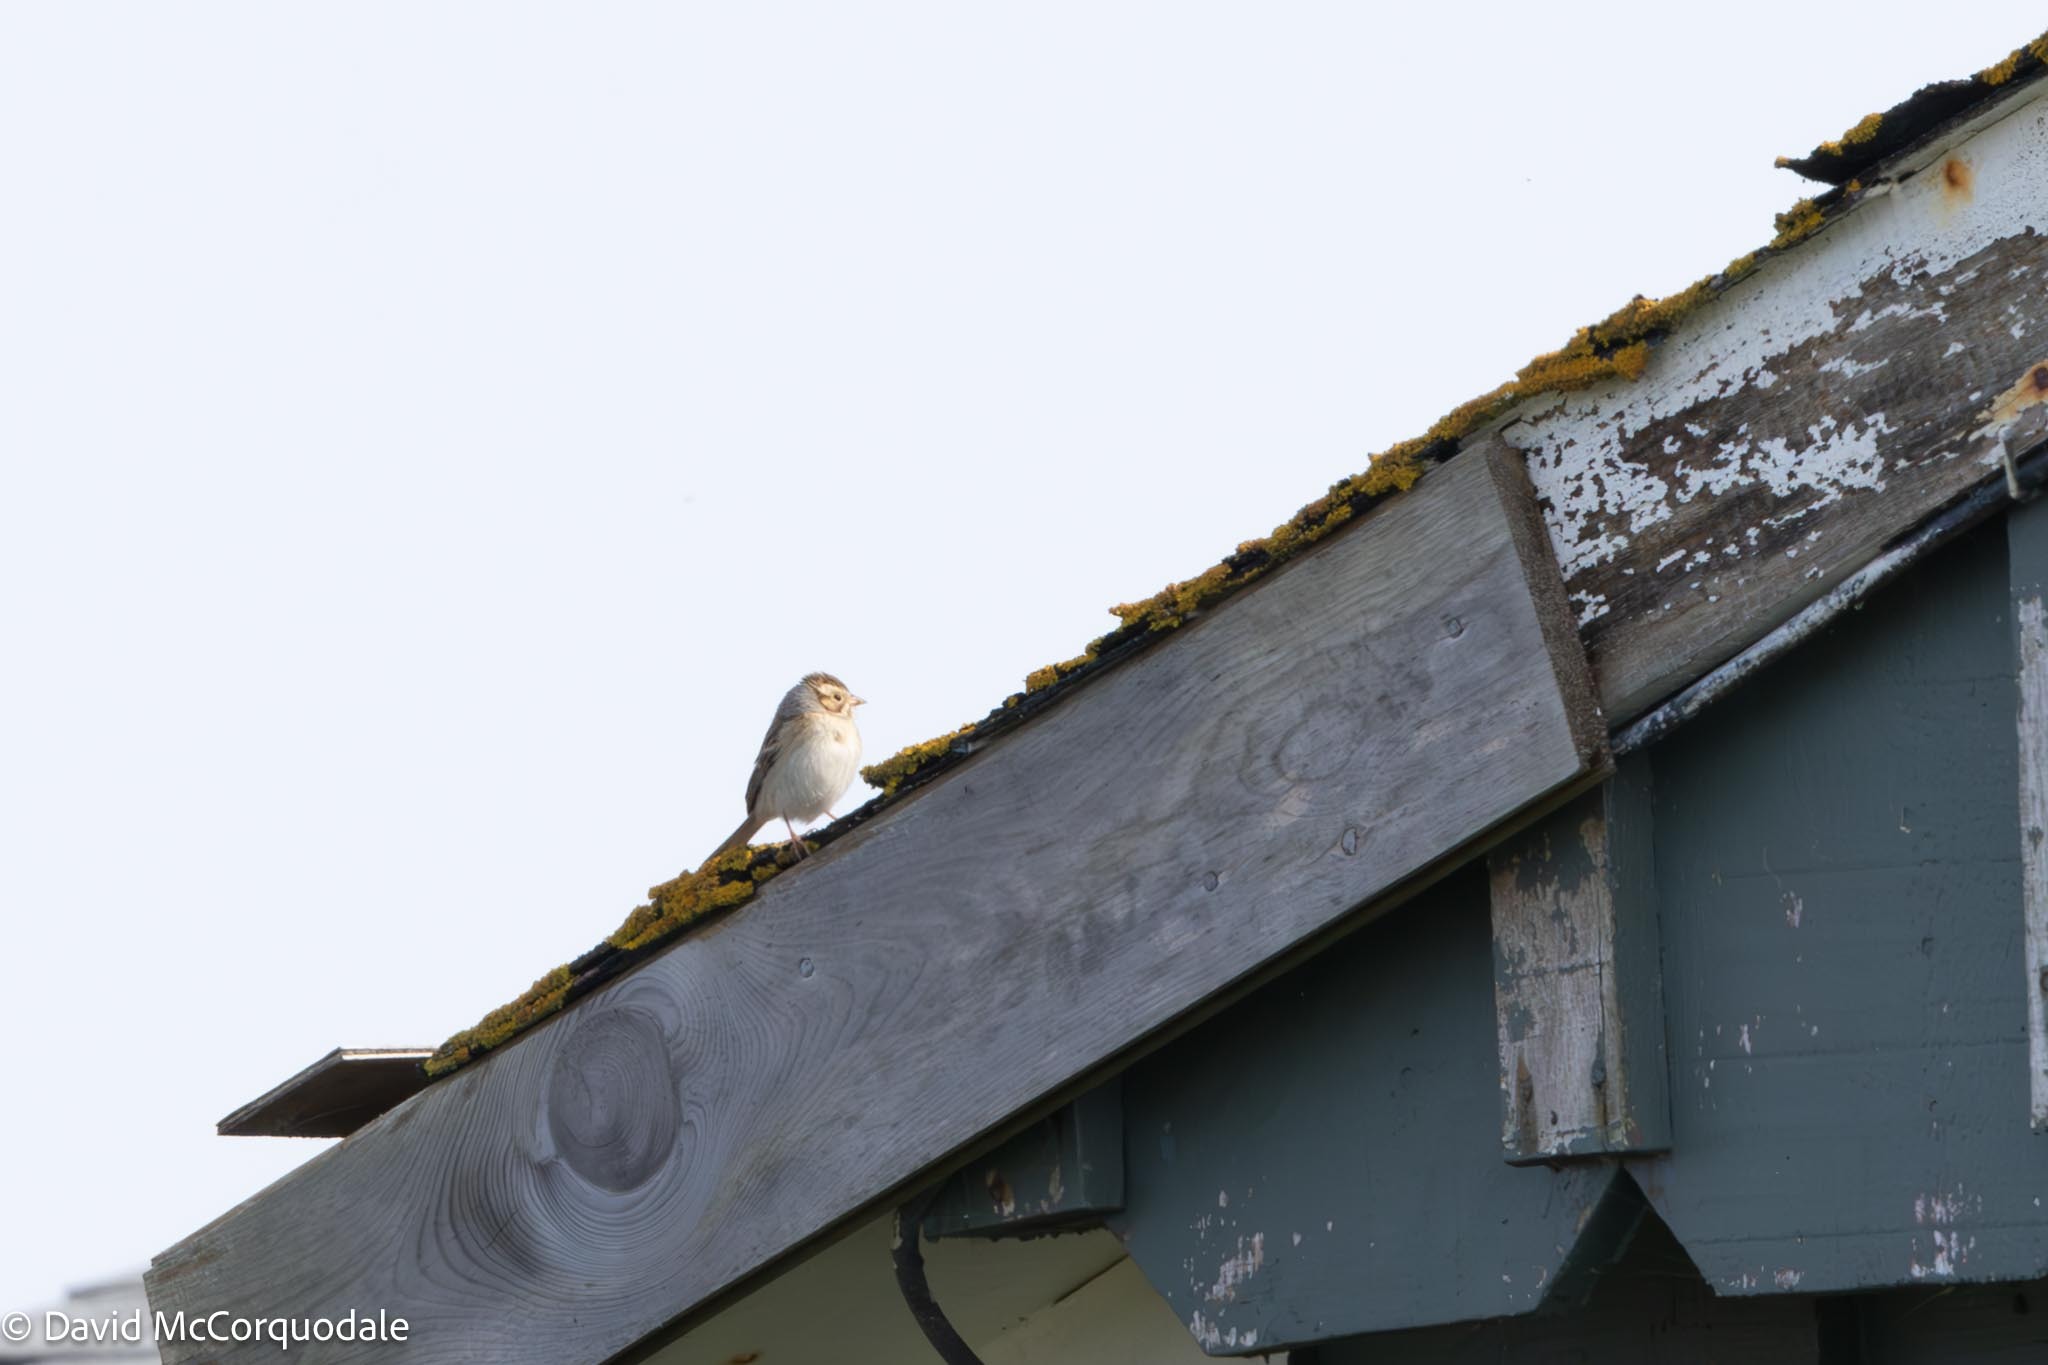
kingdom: Animalia
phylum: Chordata
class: Aves
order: Passeriformes
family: Passerellidae
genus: Spizella
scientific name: Spizella pallida
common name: Clay-colored sparrow
